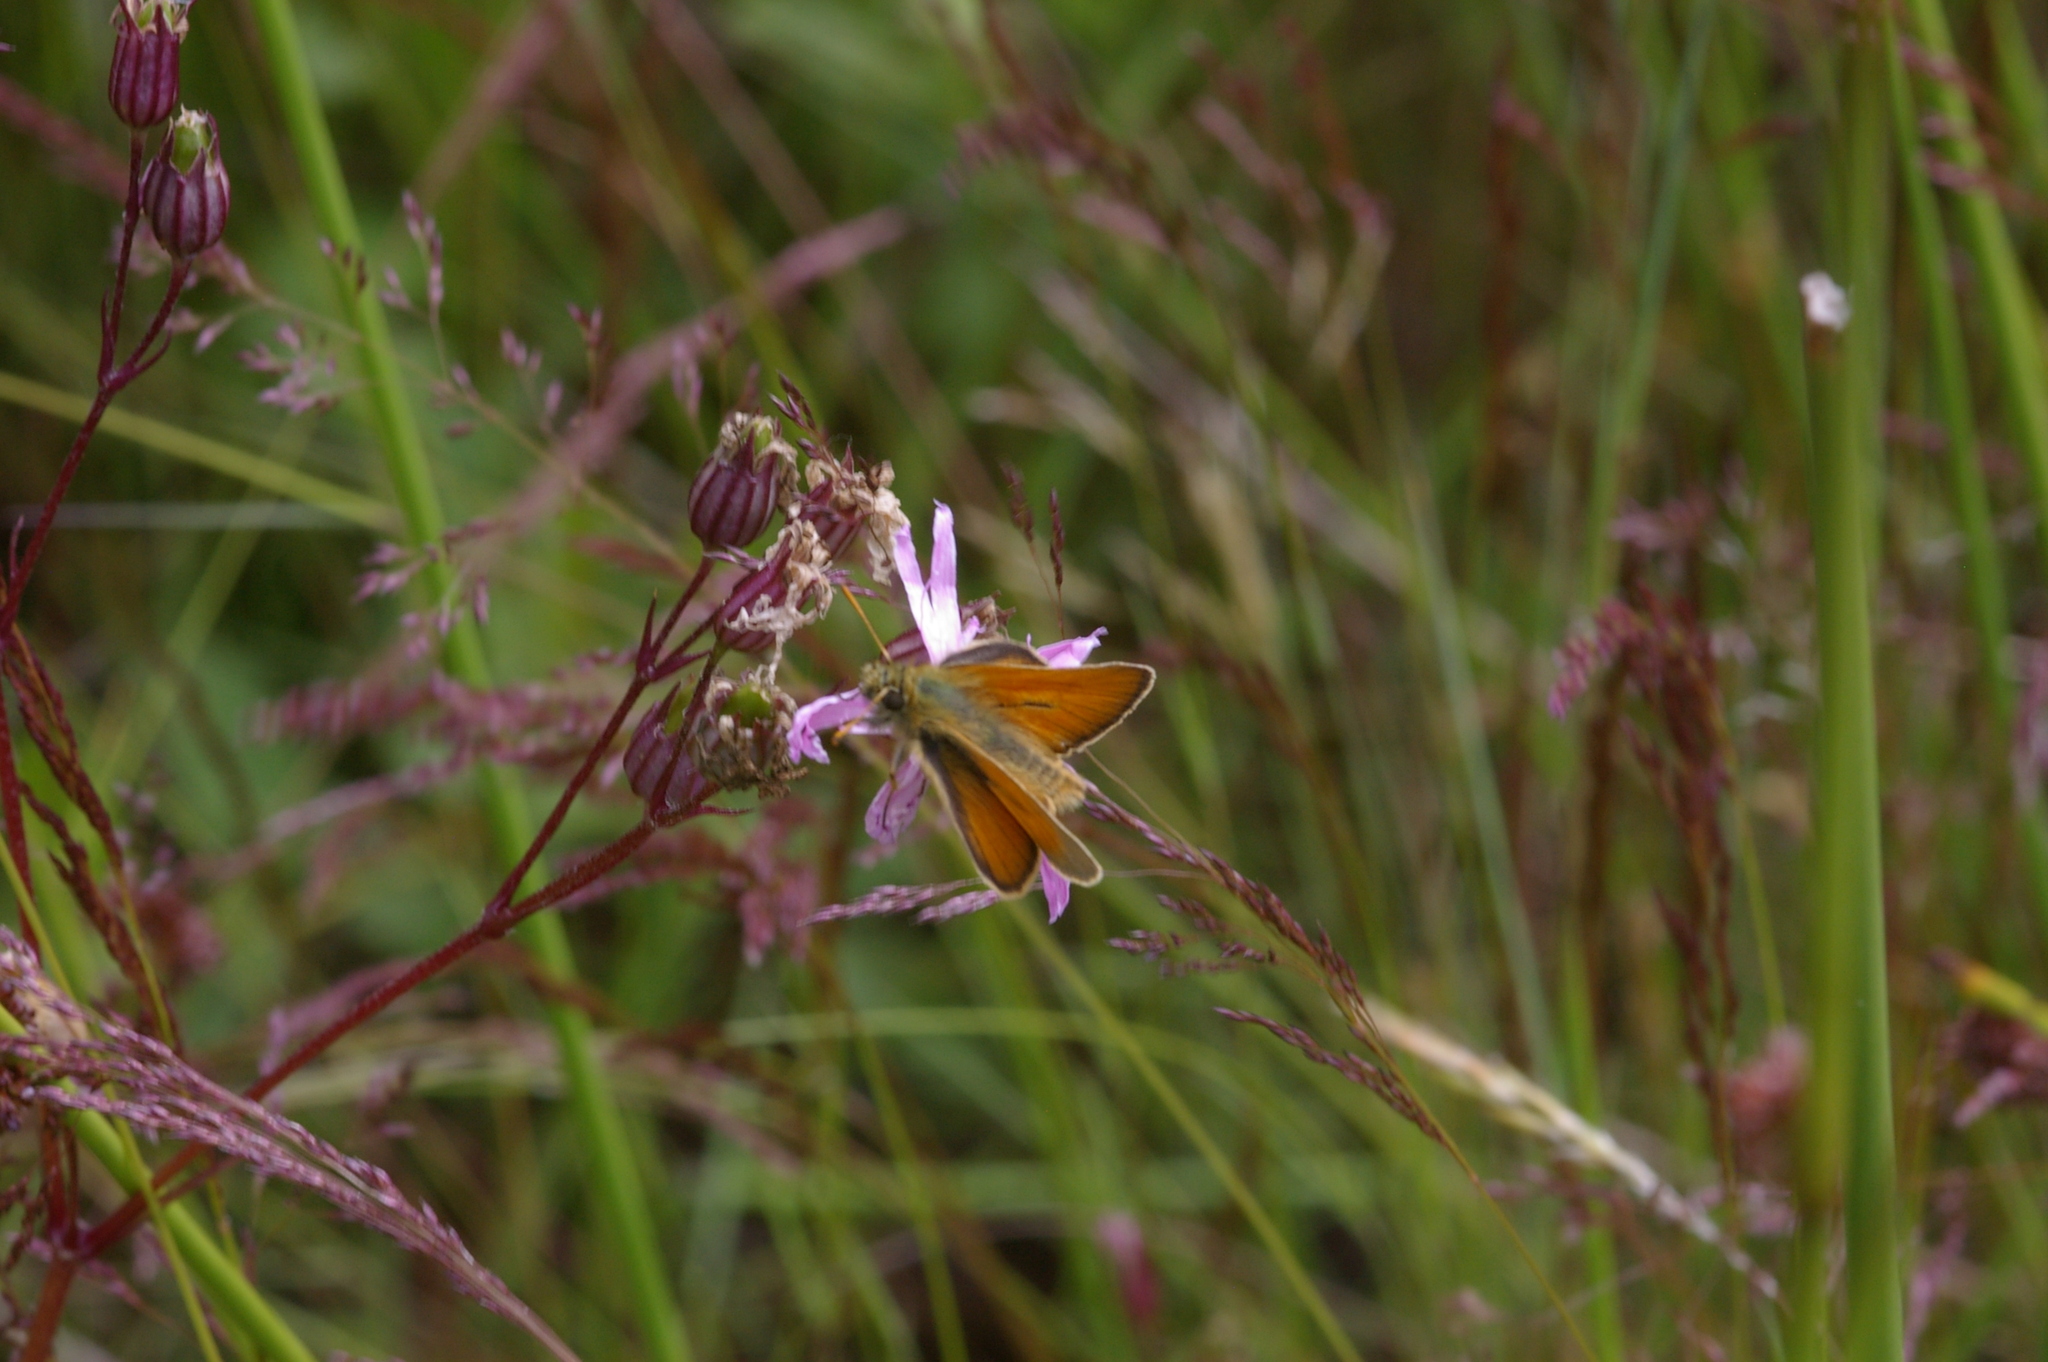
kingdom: Animalia
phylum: Arthropoda
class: Insecta
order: Lepidoptera
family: Hesperiidae
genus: Thymelicus
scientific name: Thymelicus sylvestris
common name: Small skipper
